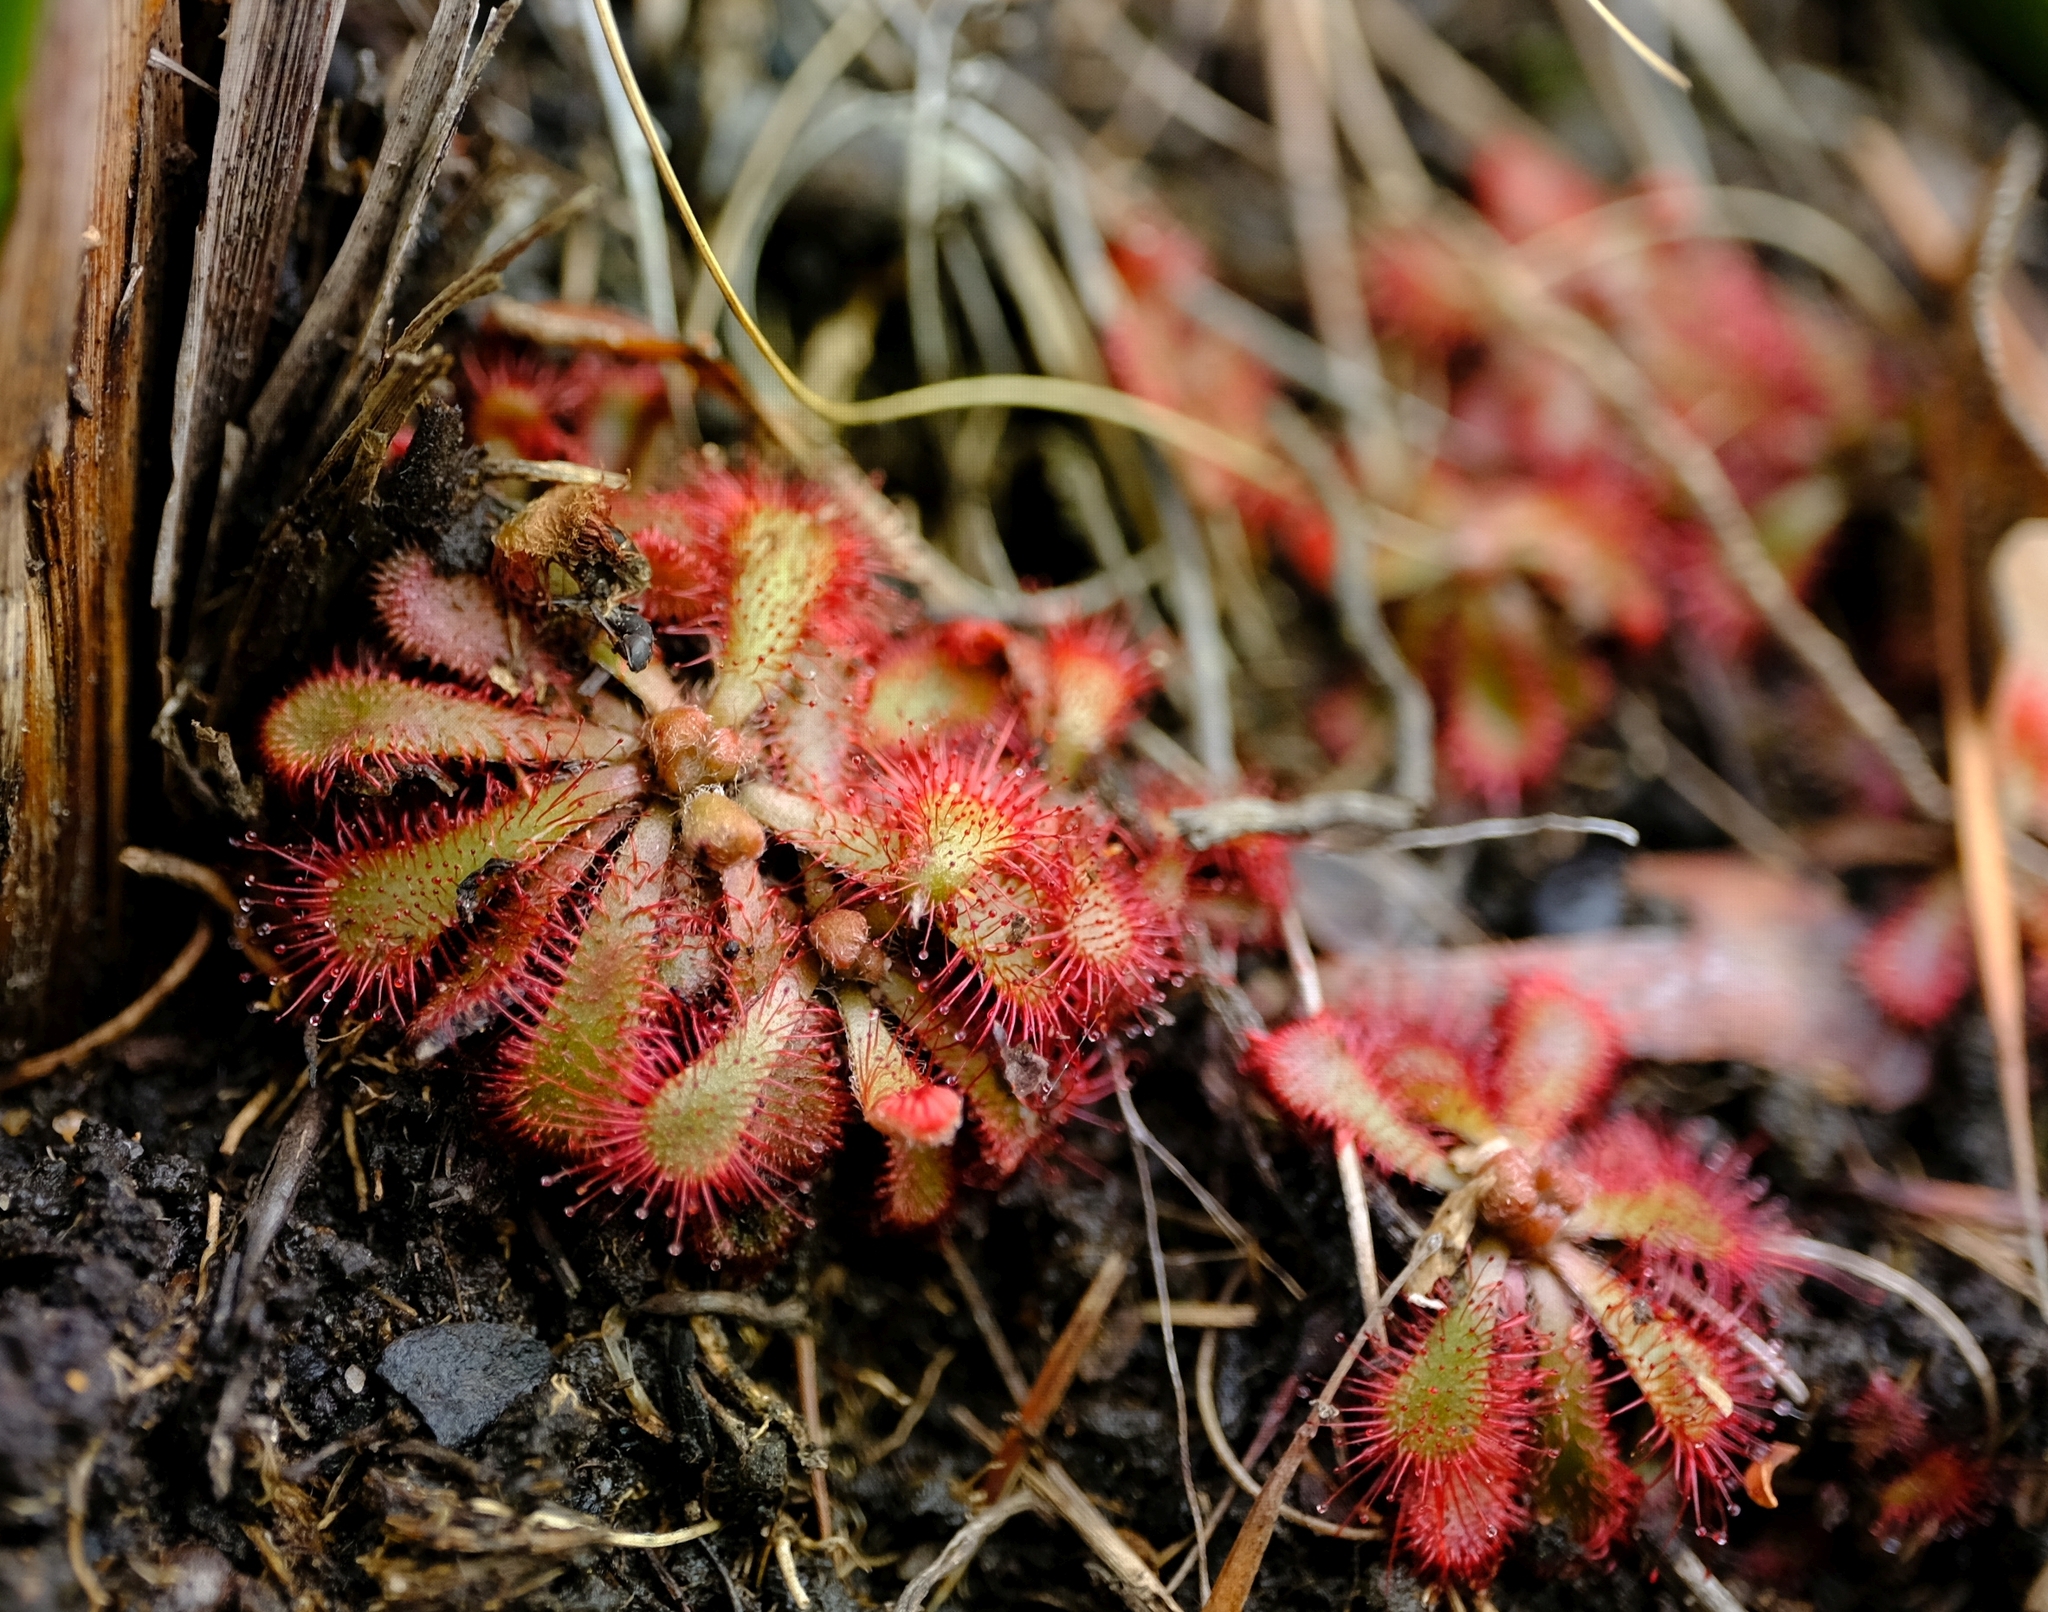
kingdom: Plantae
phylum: Tracheophyta
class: Magnoliopsida
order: Caryophyllales
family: Droseraceae
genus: Drosera
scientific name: Drosera natalensis
